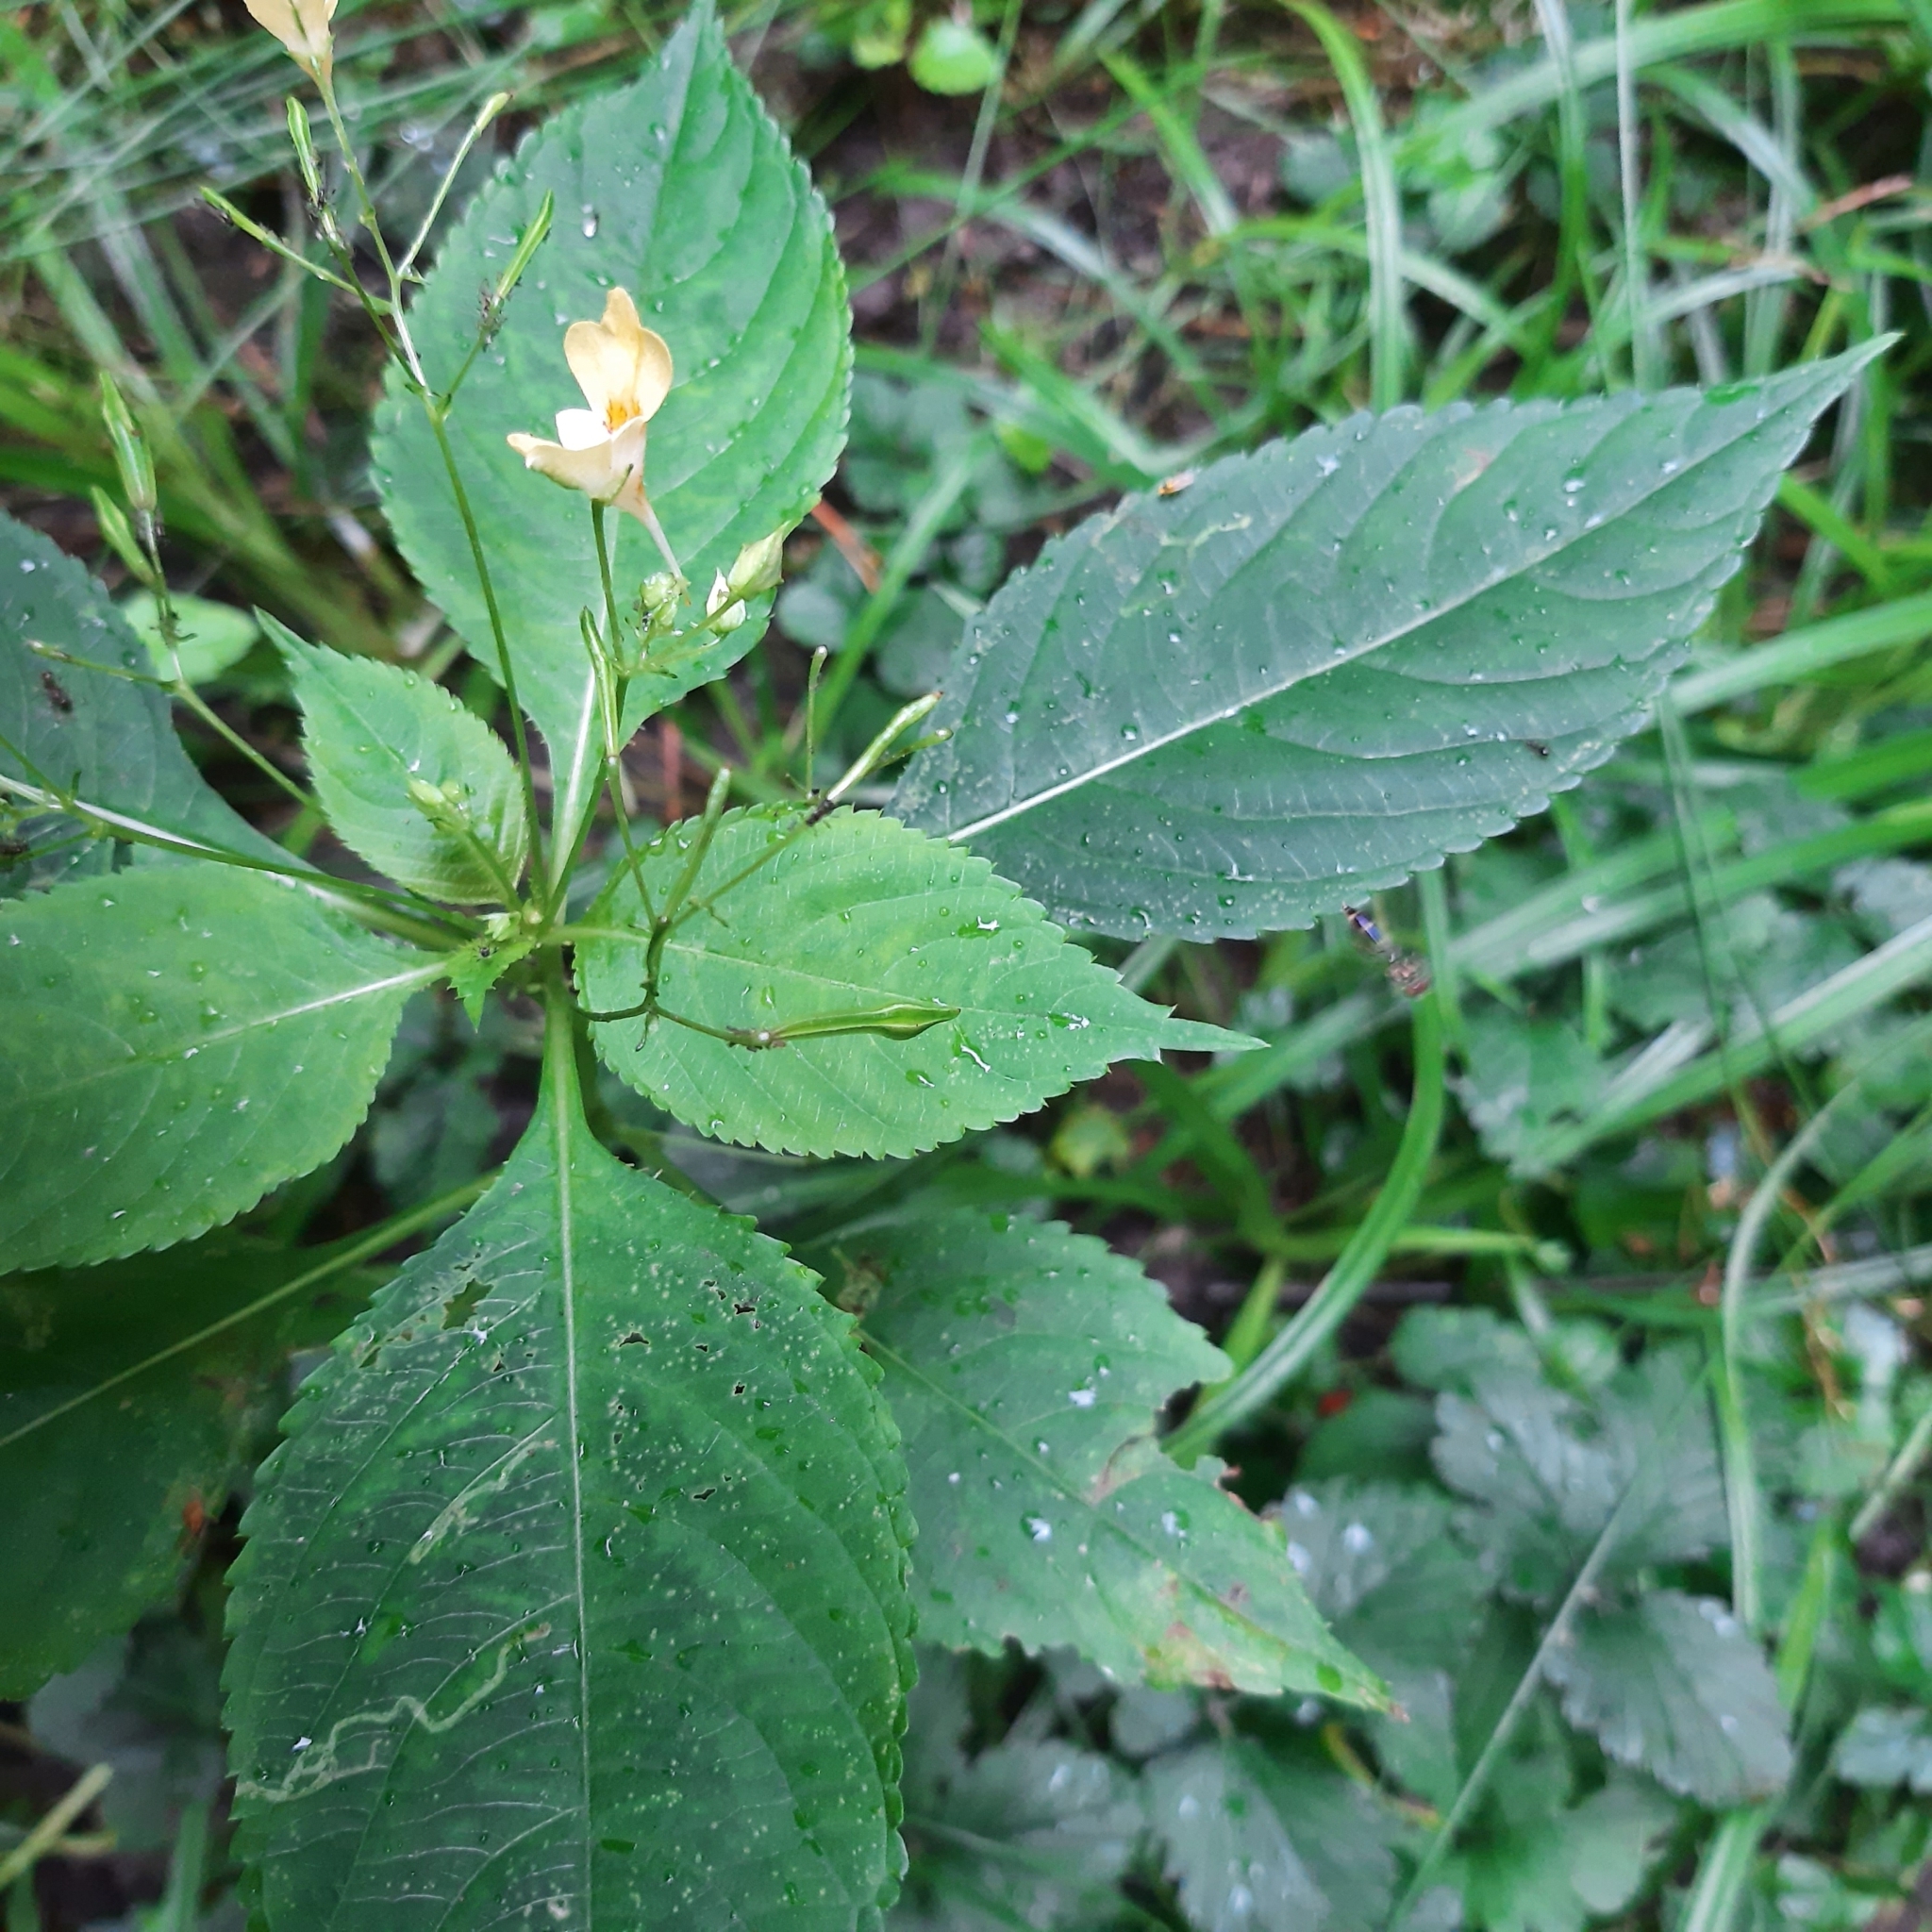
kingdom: Plantae
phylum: Tracheophyta
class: Magnoliopsida
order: Ericales
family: Balsaminaceae
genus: Impatiens
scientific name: Impatiens parviflora
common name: Small balsam
